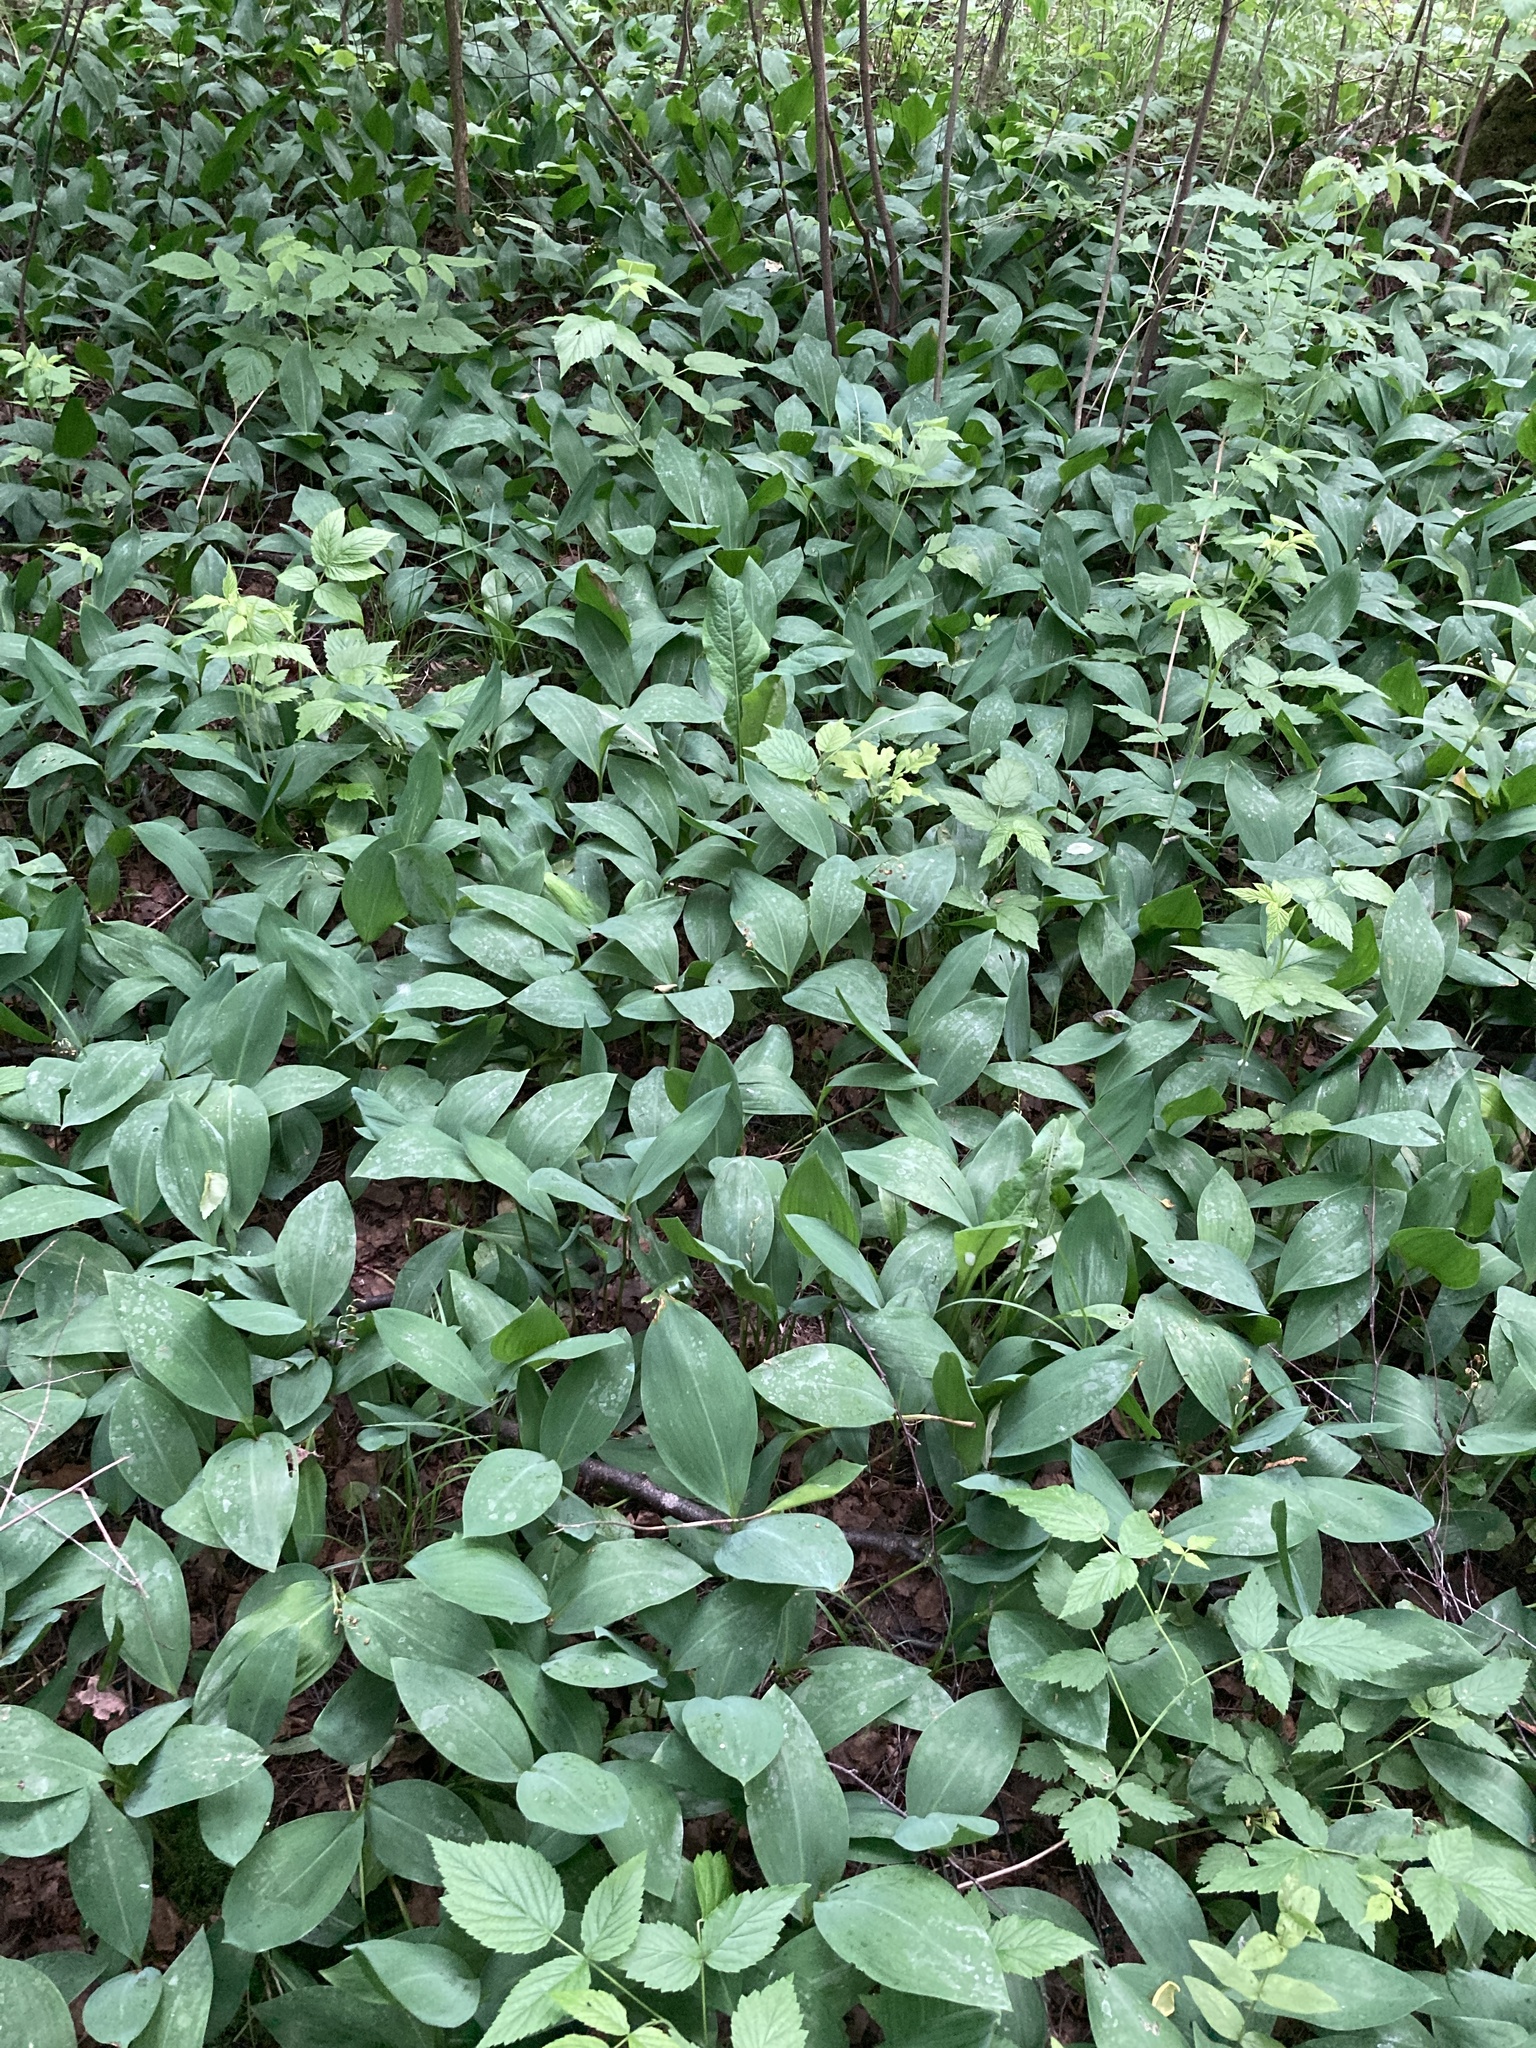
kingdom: Plantae
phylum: Tracheophyta
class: Liliopsida
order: Asparagales
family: Asparagaceae
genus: Convallaria
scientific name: Convallaria majalis
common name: Lily-of-the-valley
